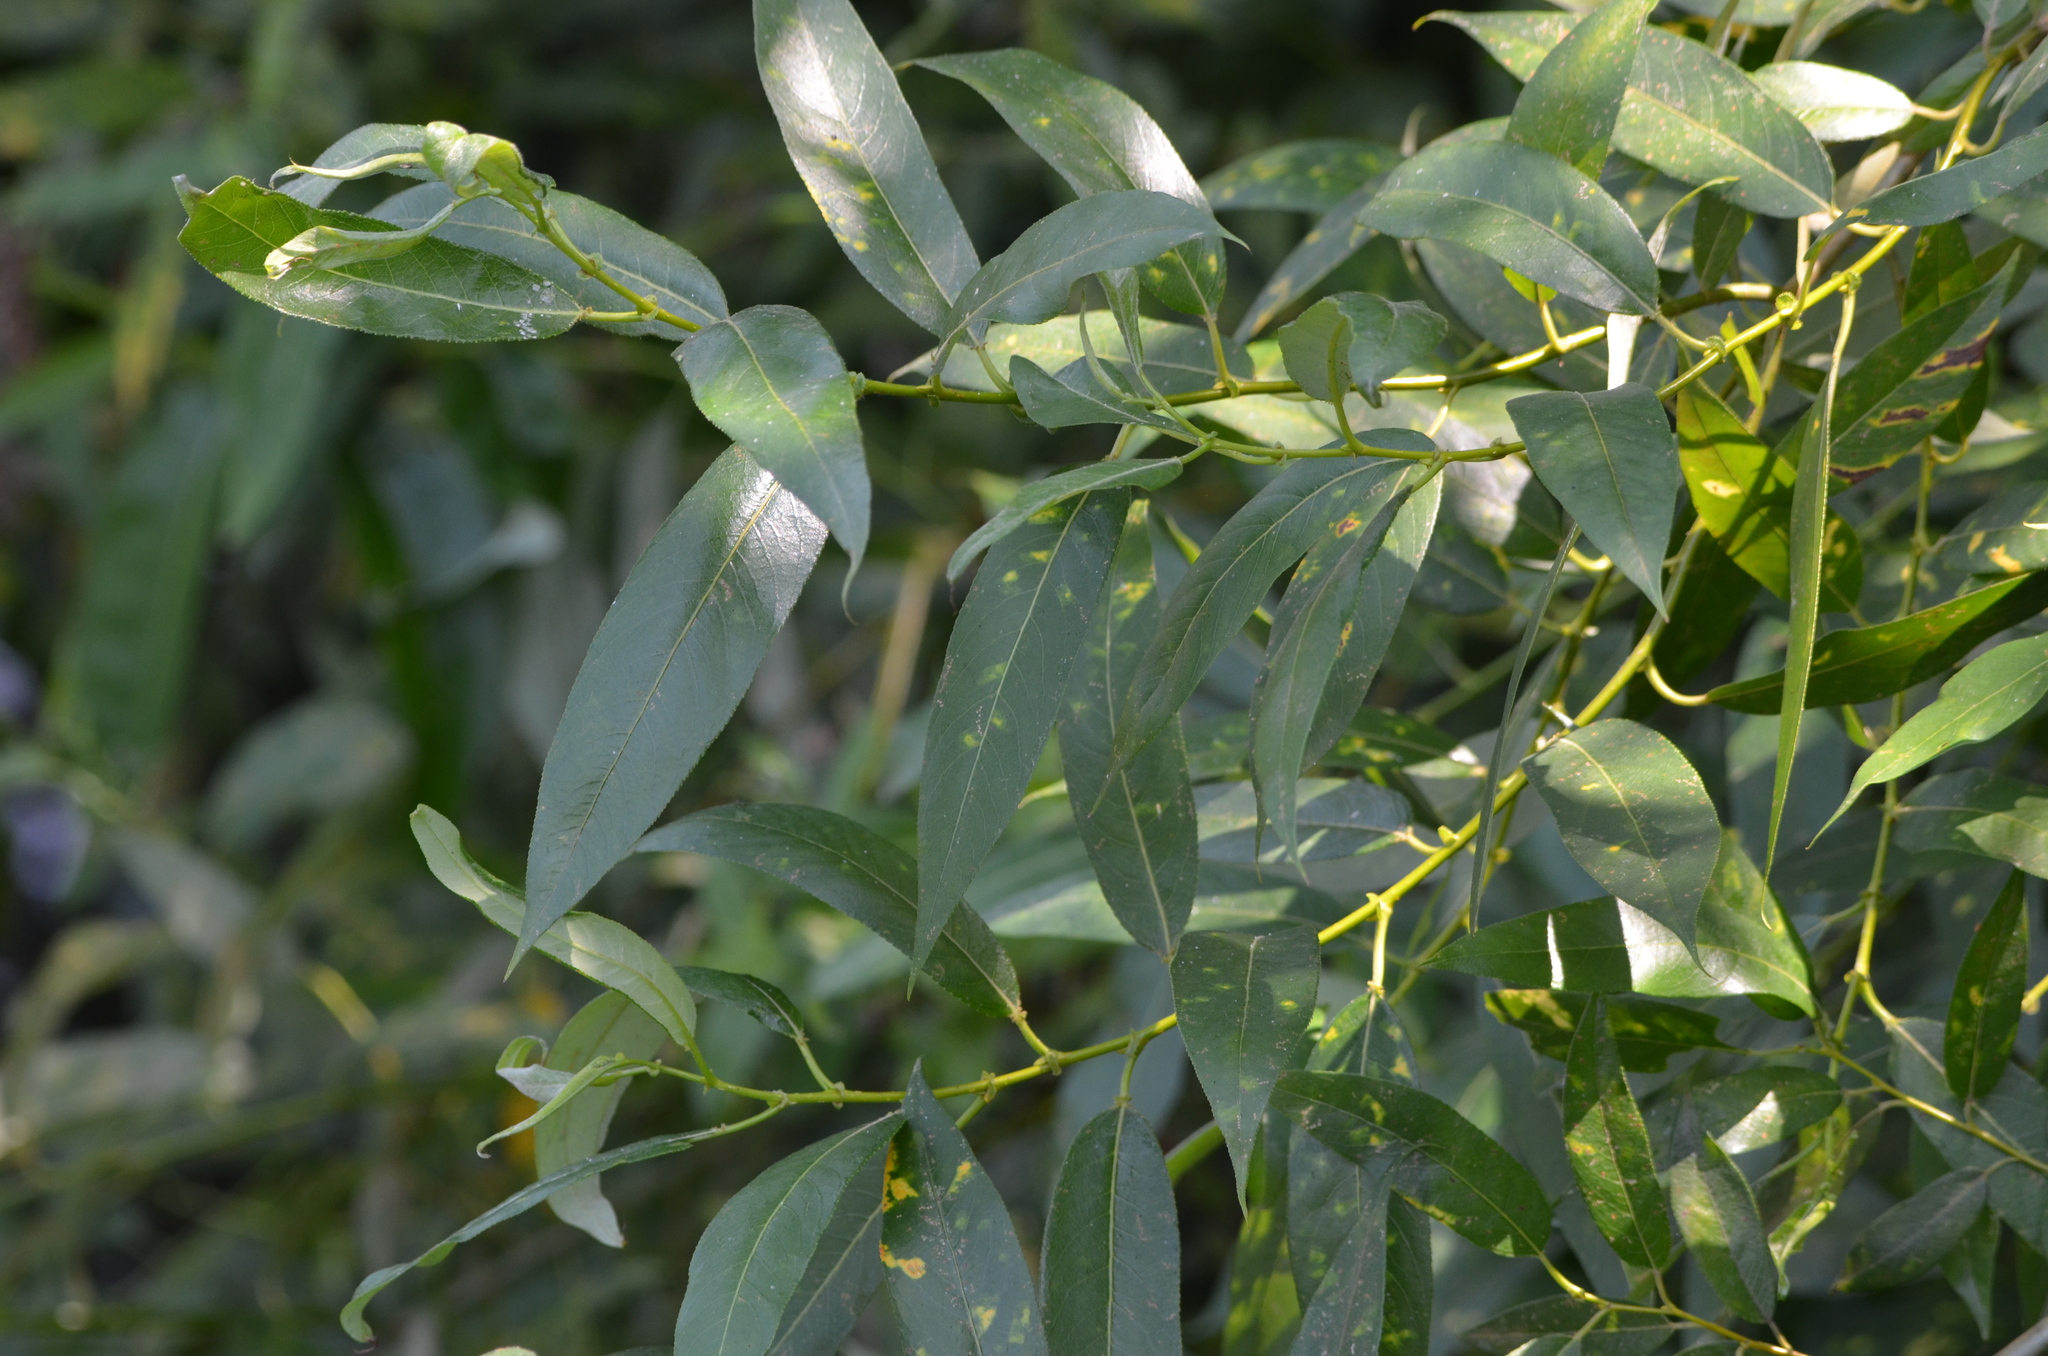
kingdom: Plantae
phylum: Tracheophyta
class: Magnoliopsida
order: Malpighiales
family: Salicaceae
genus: Salix
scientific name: Salix lucida
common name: Shining willow
